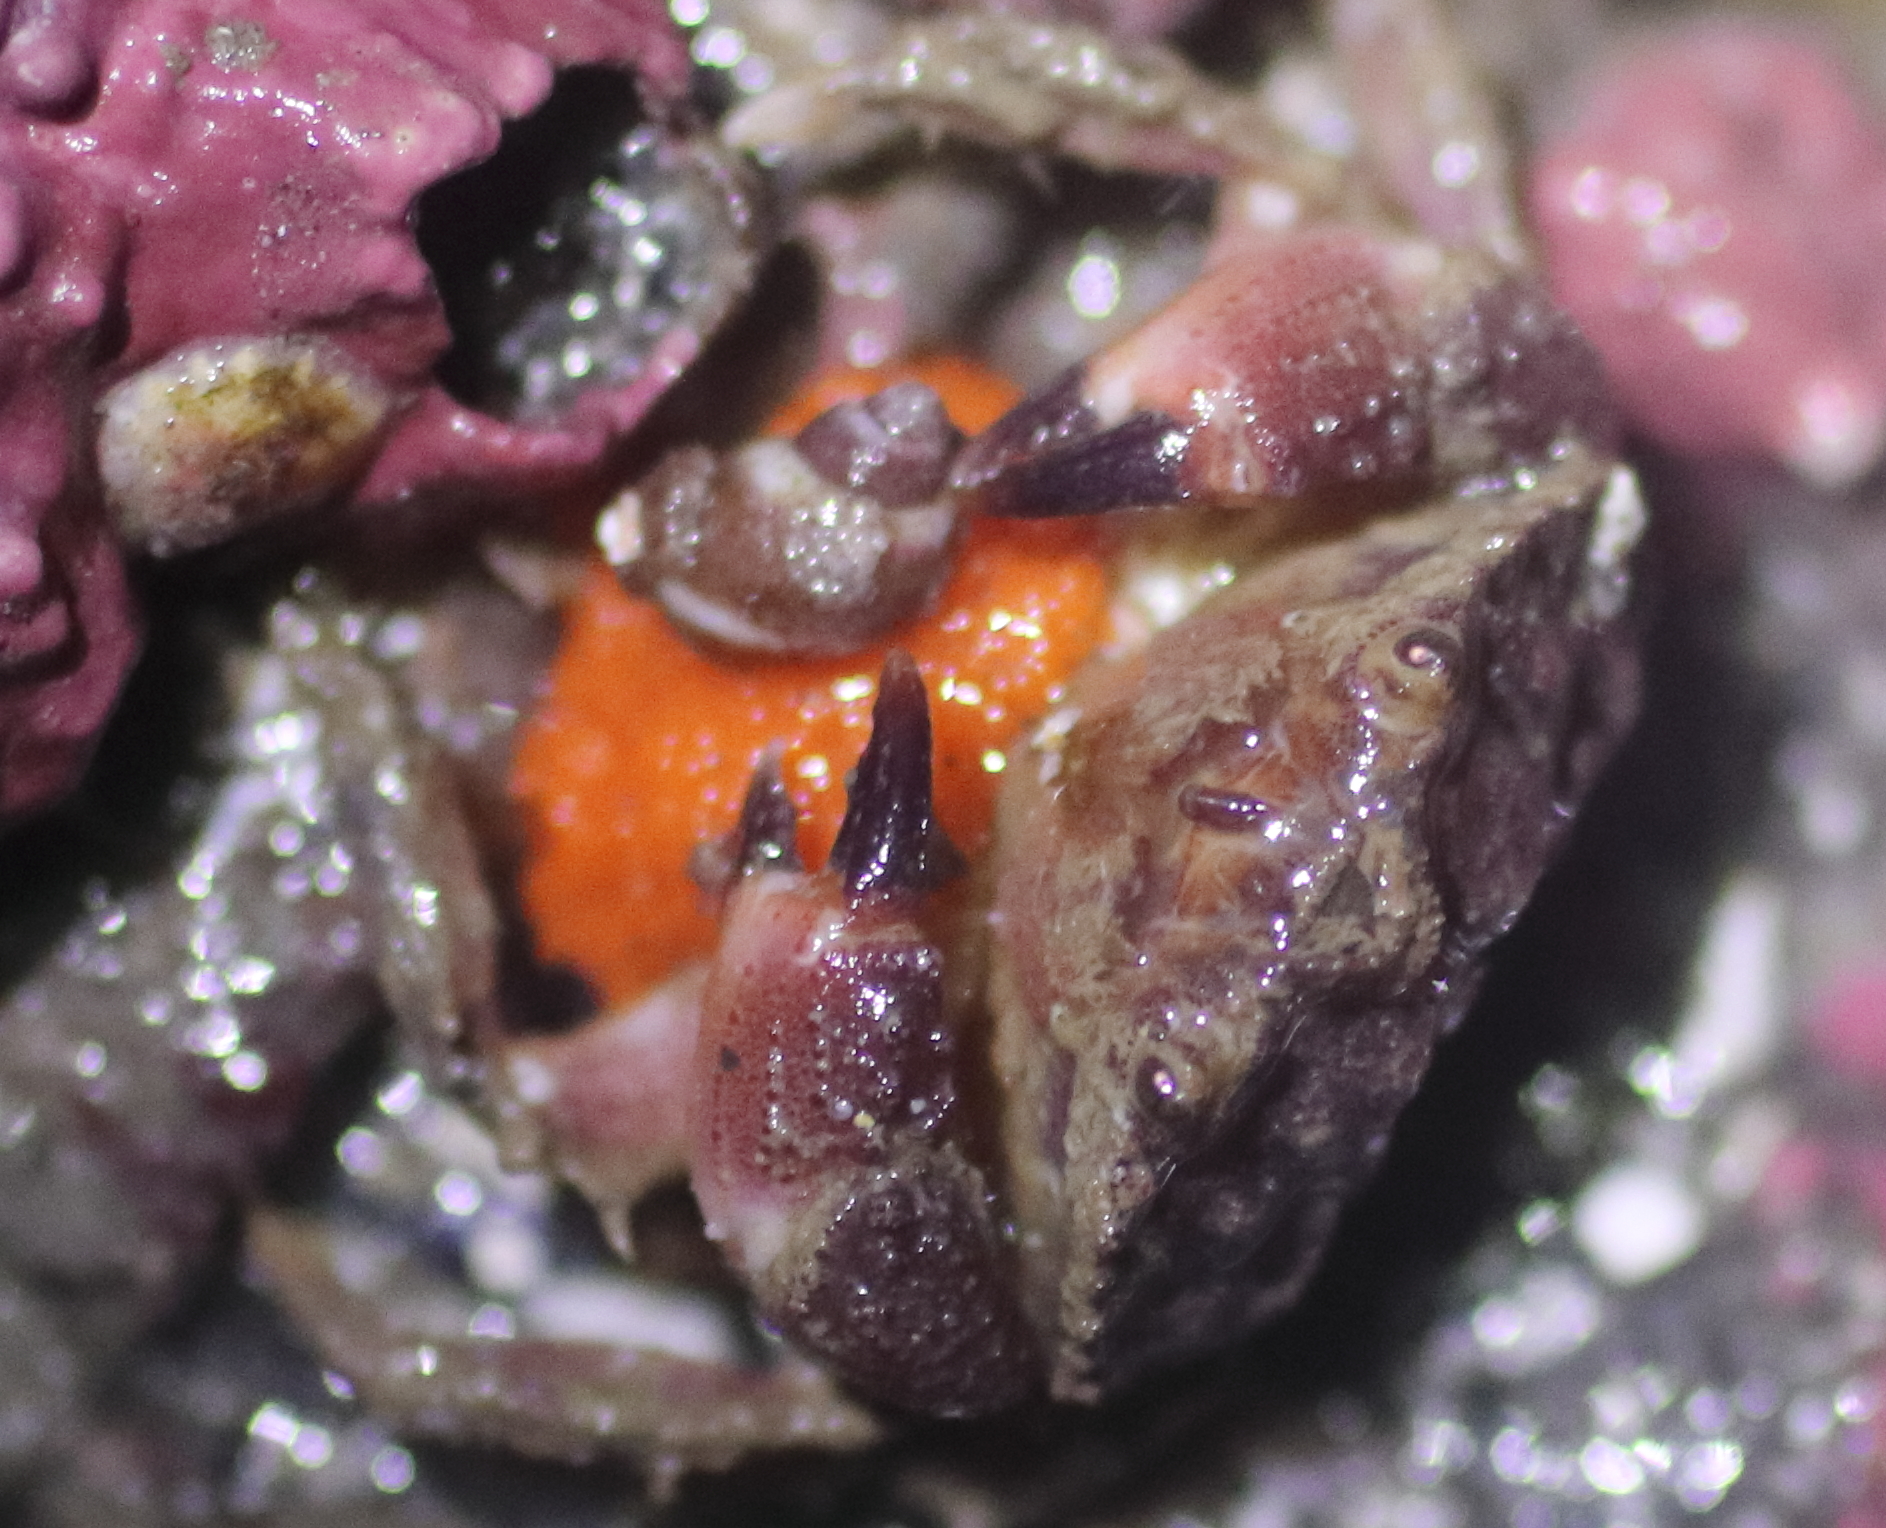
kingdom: Animalia
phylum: Arthropoda
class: Malacostraca
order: Decapoda
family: Cancridae
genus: Glebocarcinus
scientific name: Glebocarcinus oregonensis
